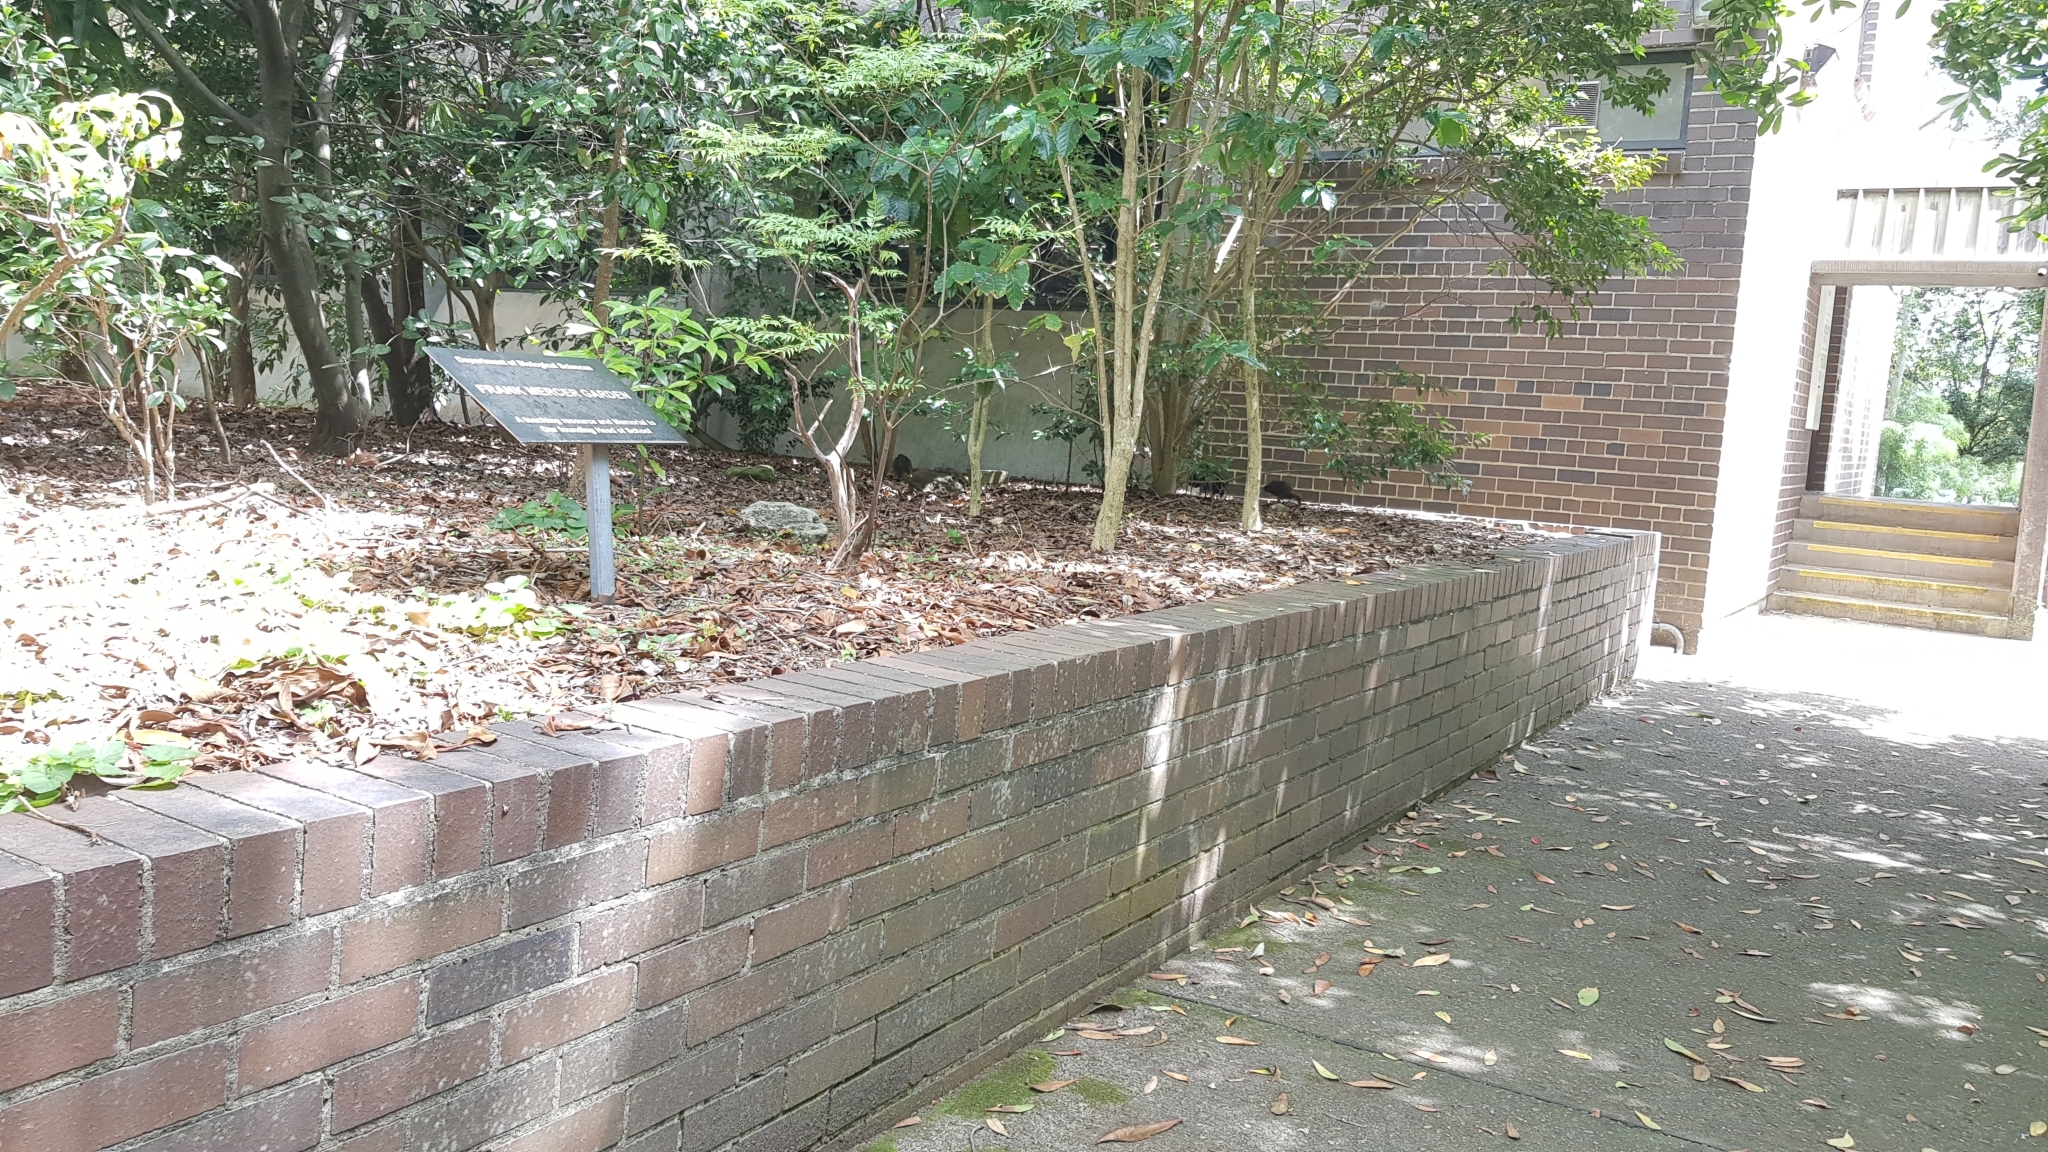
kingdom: Animalia
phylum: Chordata
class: Aves
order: Galliformes
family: Megapodiidae
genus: Alectura
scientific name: Alectura lathami
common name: Australian brushturkey
